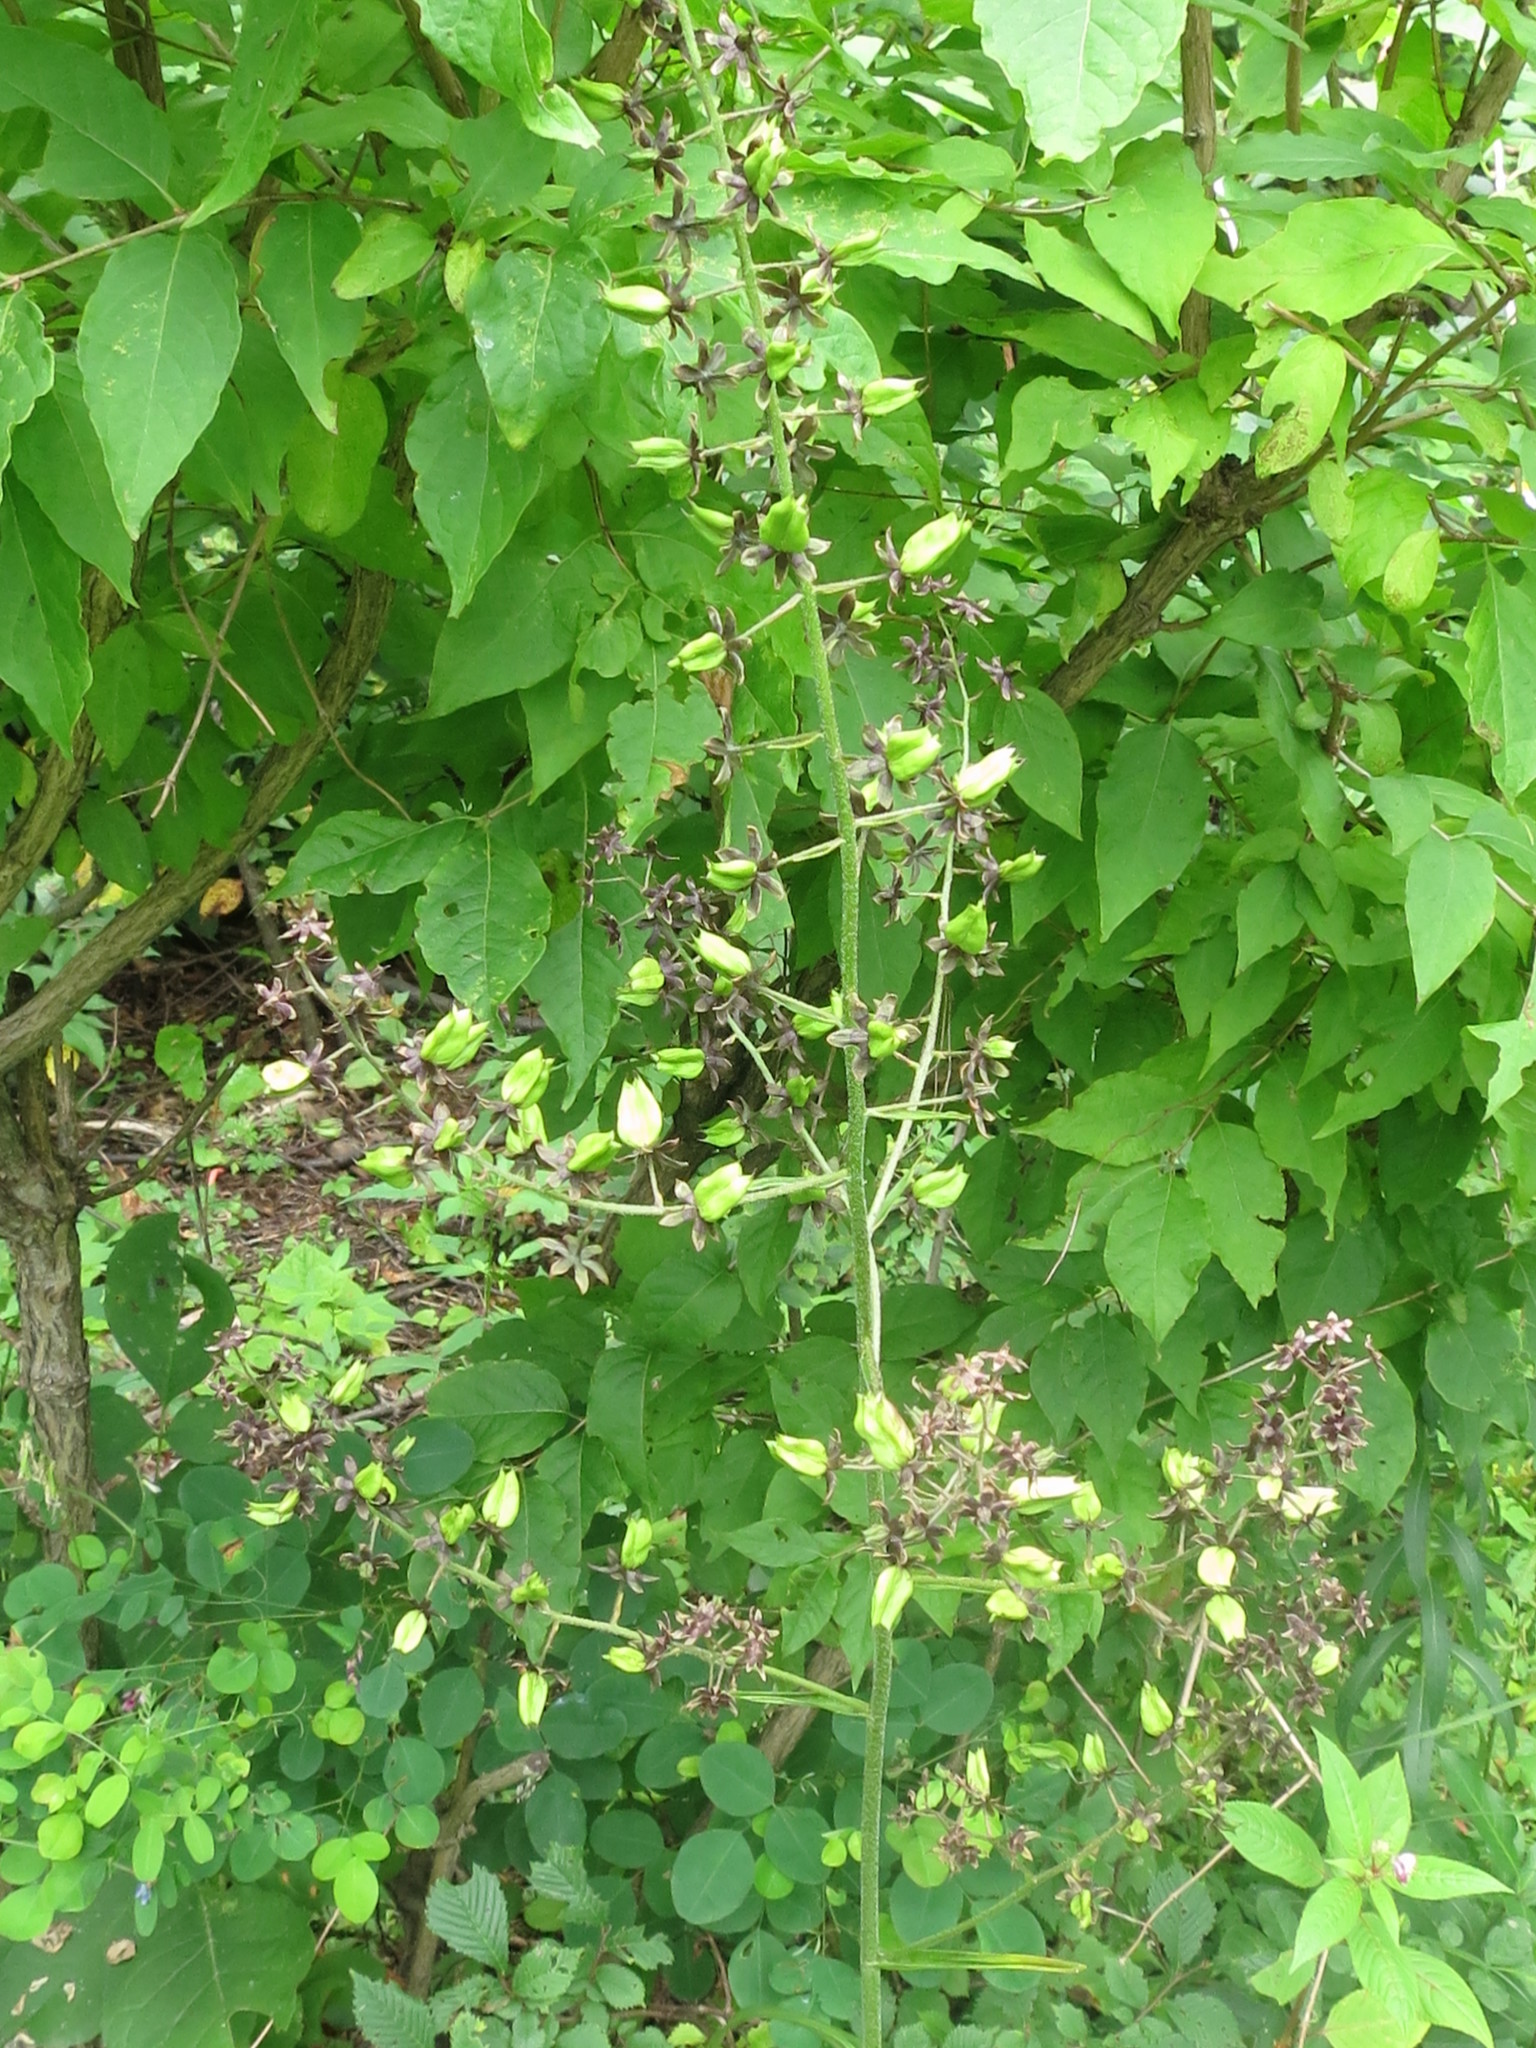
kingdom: Plantae
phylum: Tracheophyta
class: Liliopsida
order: Liliales
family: Melanthiaceae
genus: Veratrum
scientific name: Veratrum maackii
